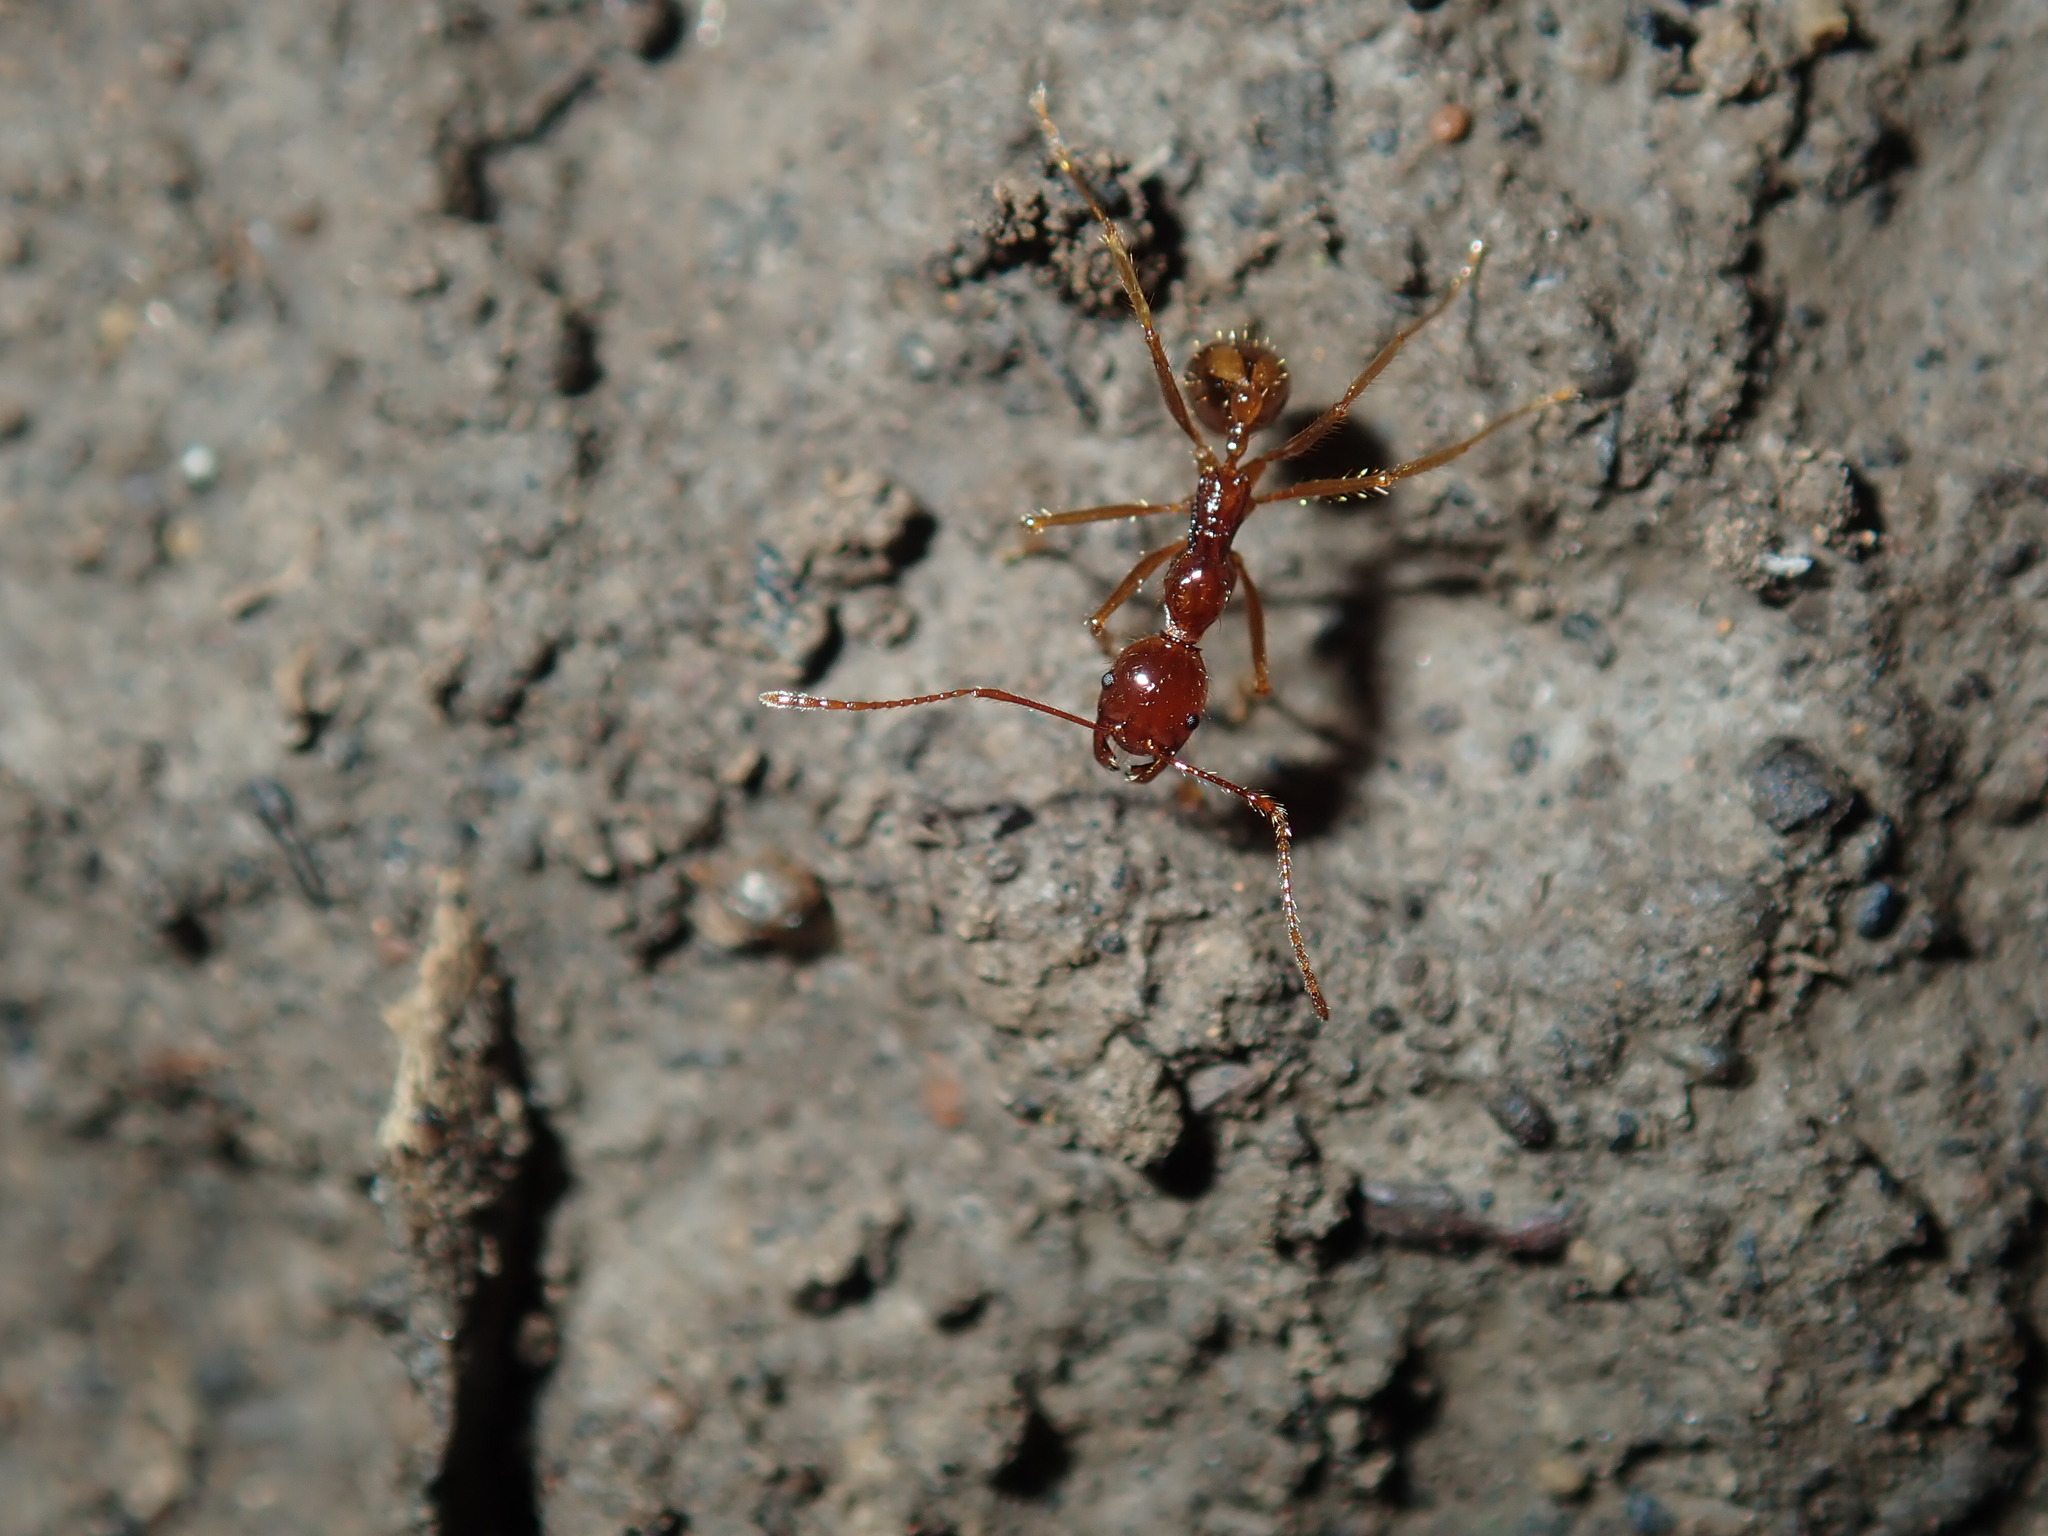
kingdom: Animalia
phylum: Arthropoda
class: Insecta
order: Hymenoptera
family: Formicidae
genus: Aphaenogaster
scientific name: Aphaenogaster longiceps
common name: Funnel ant
